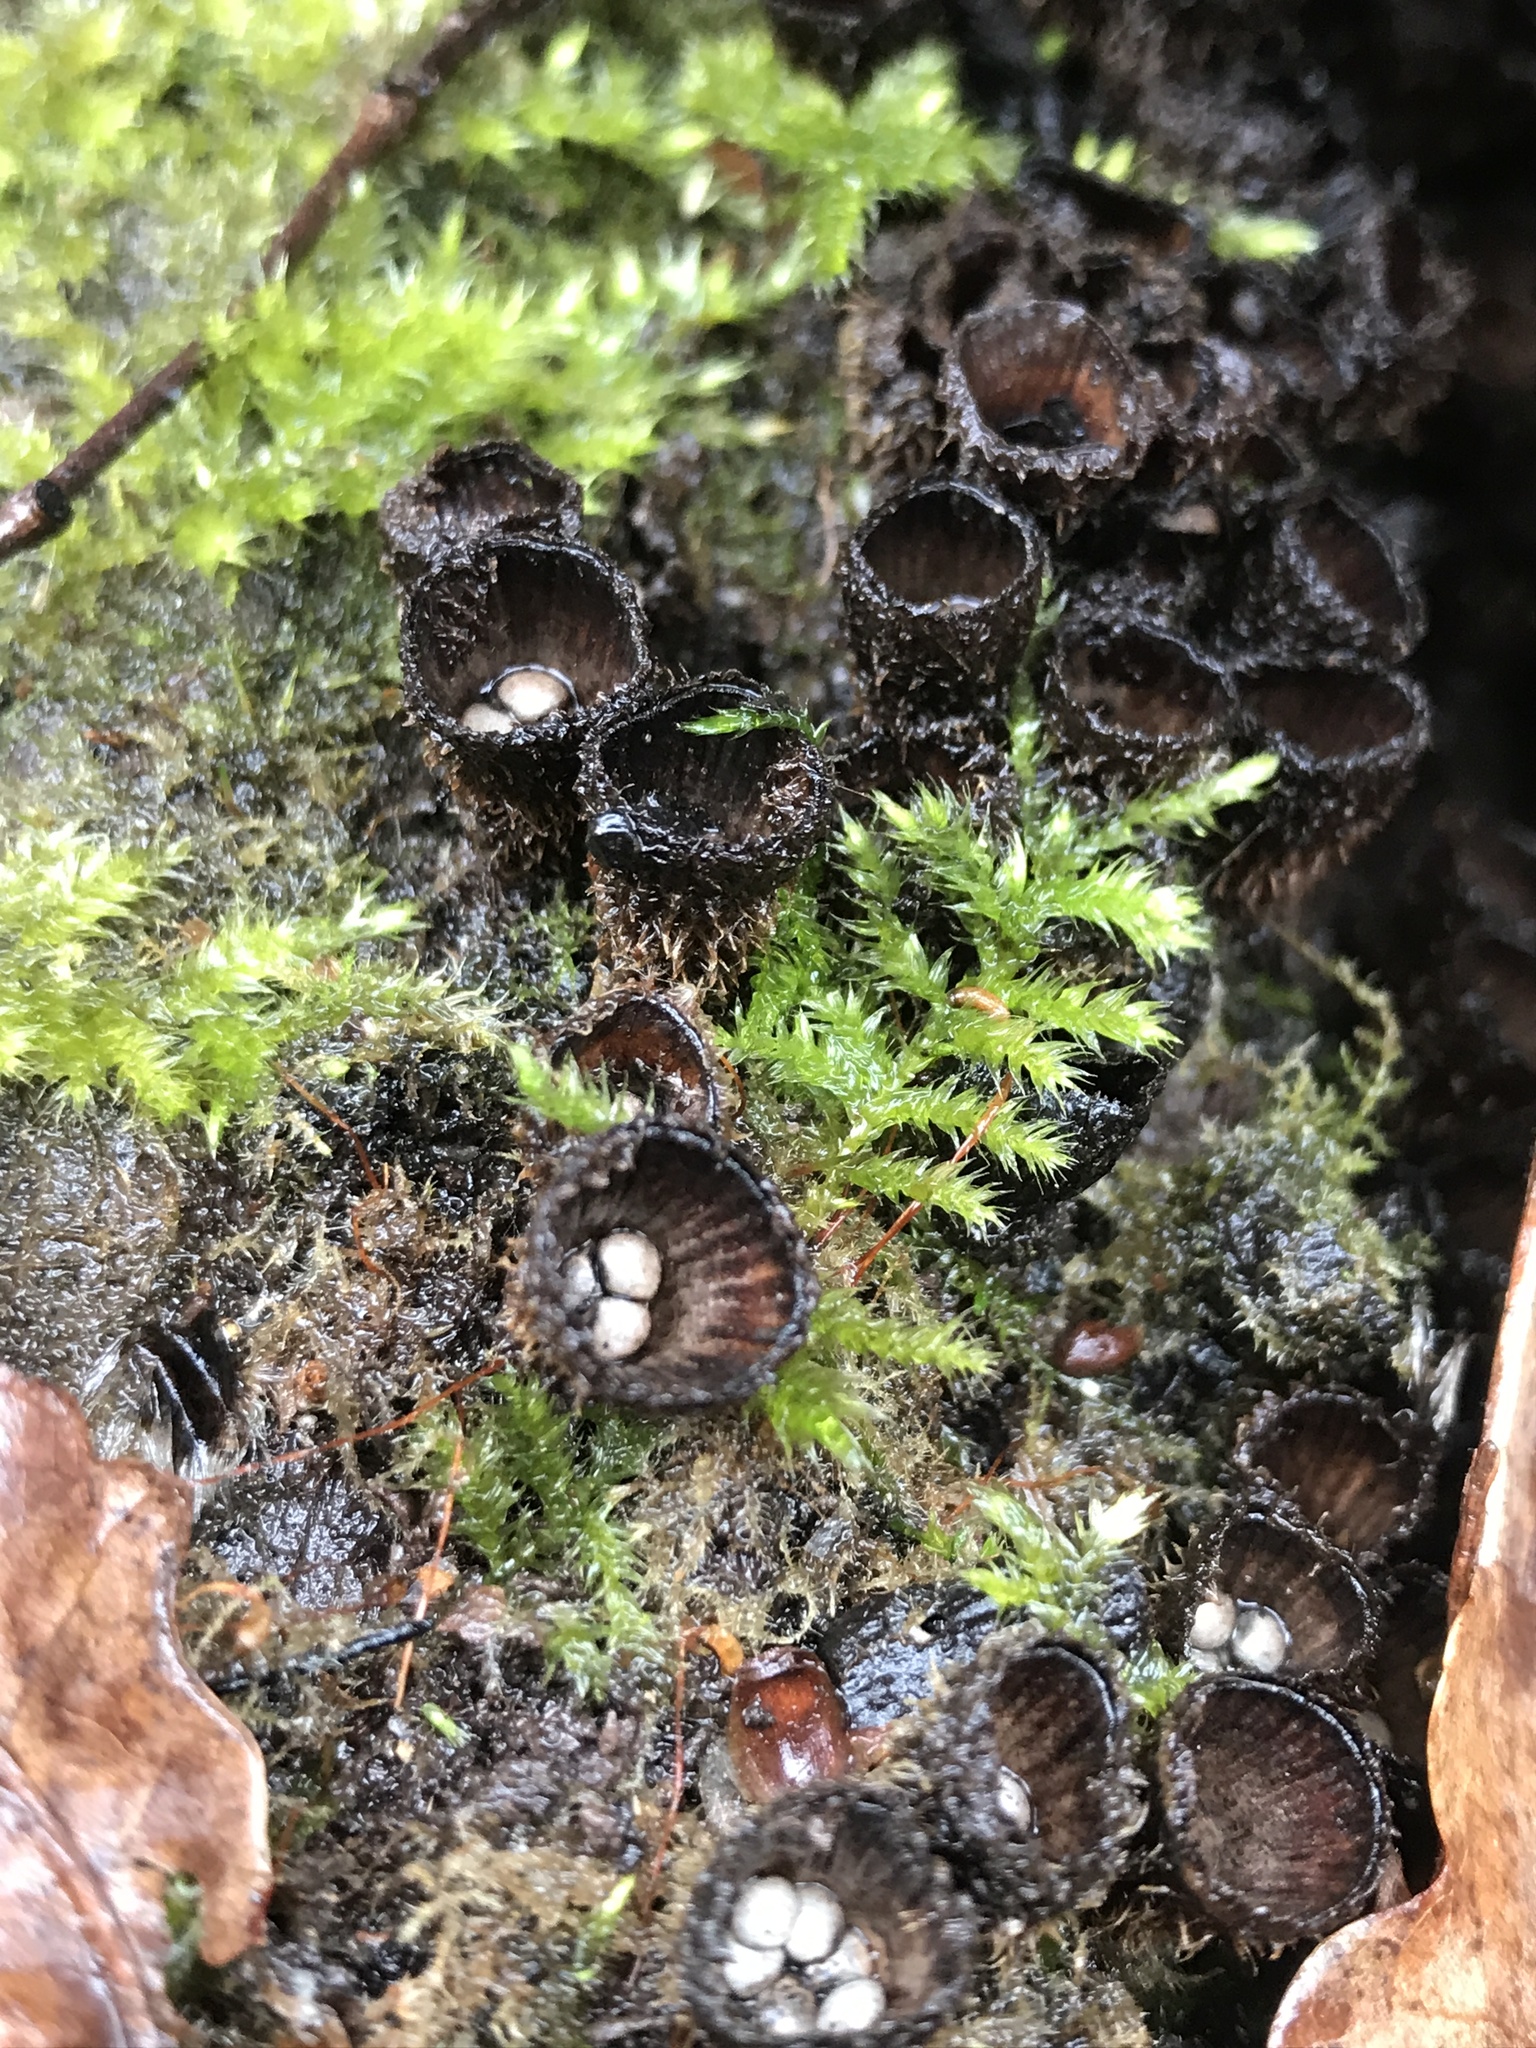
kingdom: Fungi
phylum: Basidiomycota
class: Agaricomycetes
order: Agaricales
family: Agaricaceae
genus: Cyathus
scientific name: Cyathus striatus
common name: Fluted bird's nest
